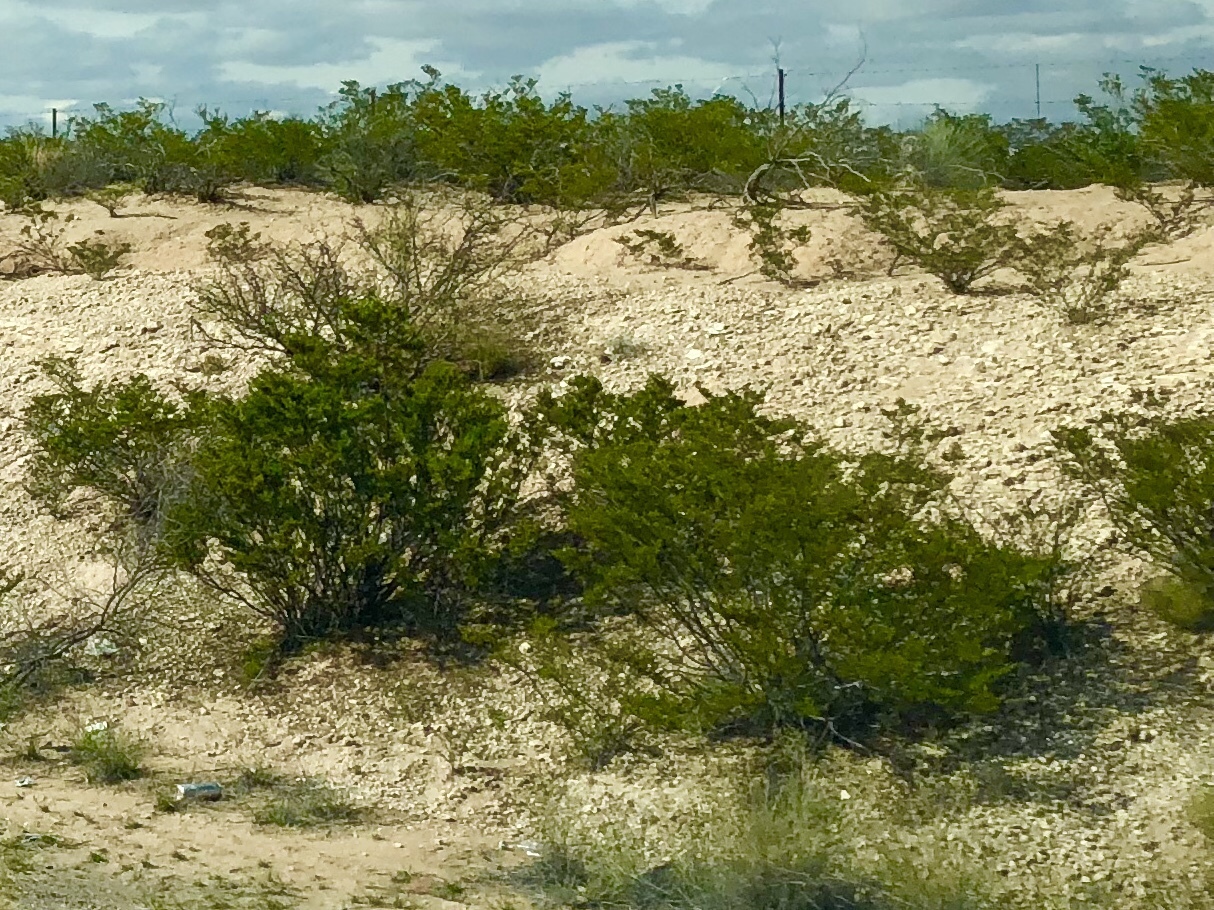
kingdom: Plantae
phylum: Tracheophyta
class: Magnoliopsida
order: Zygophyllales
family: Zygophyllaceae
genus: Larrea
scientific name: Larrea tridentata
